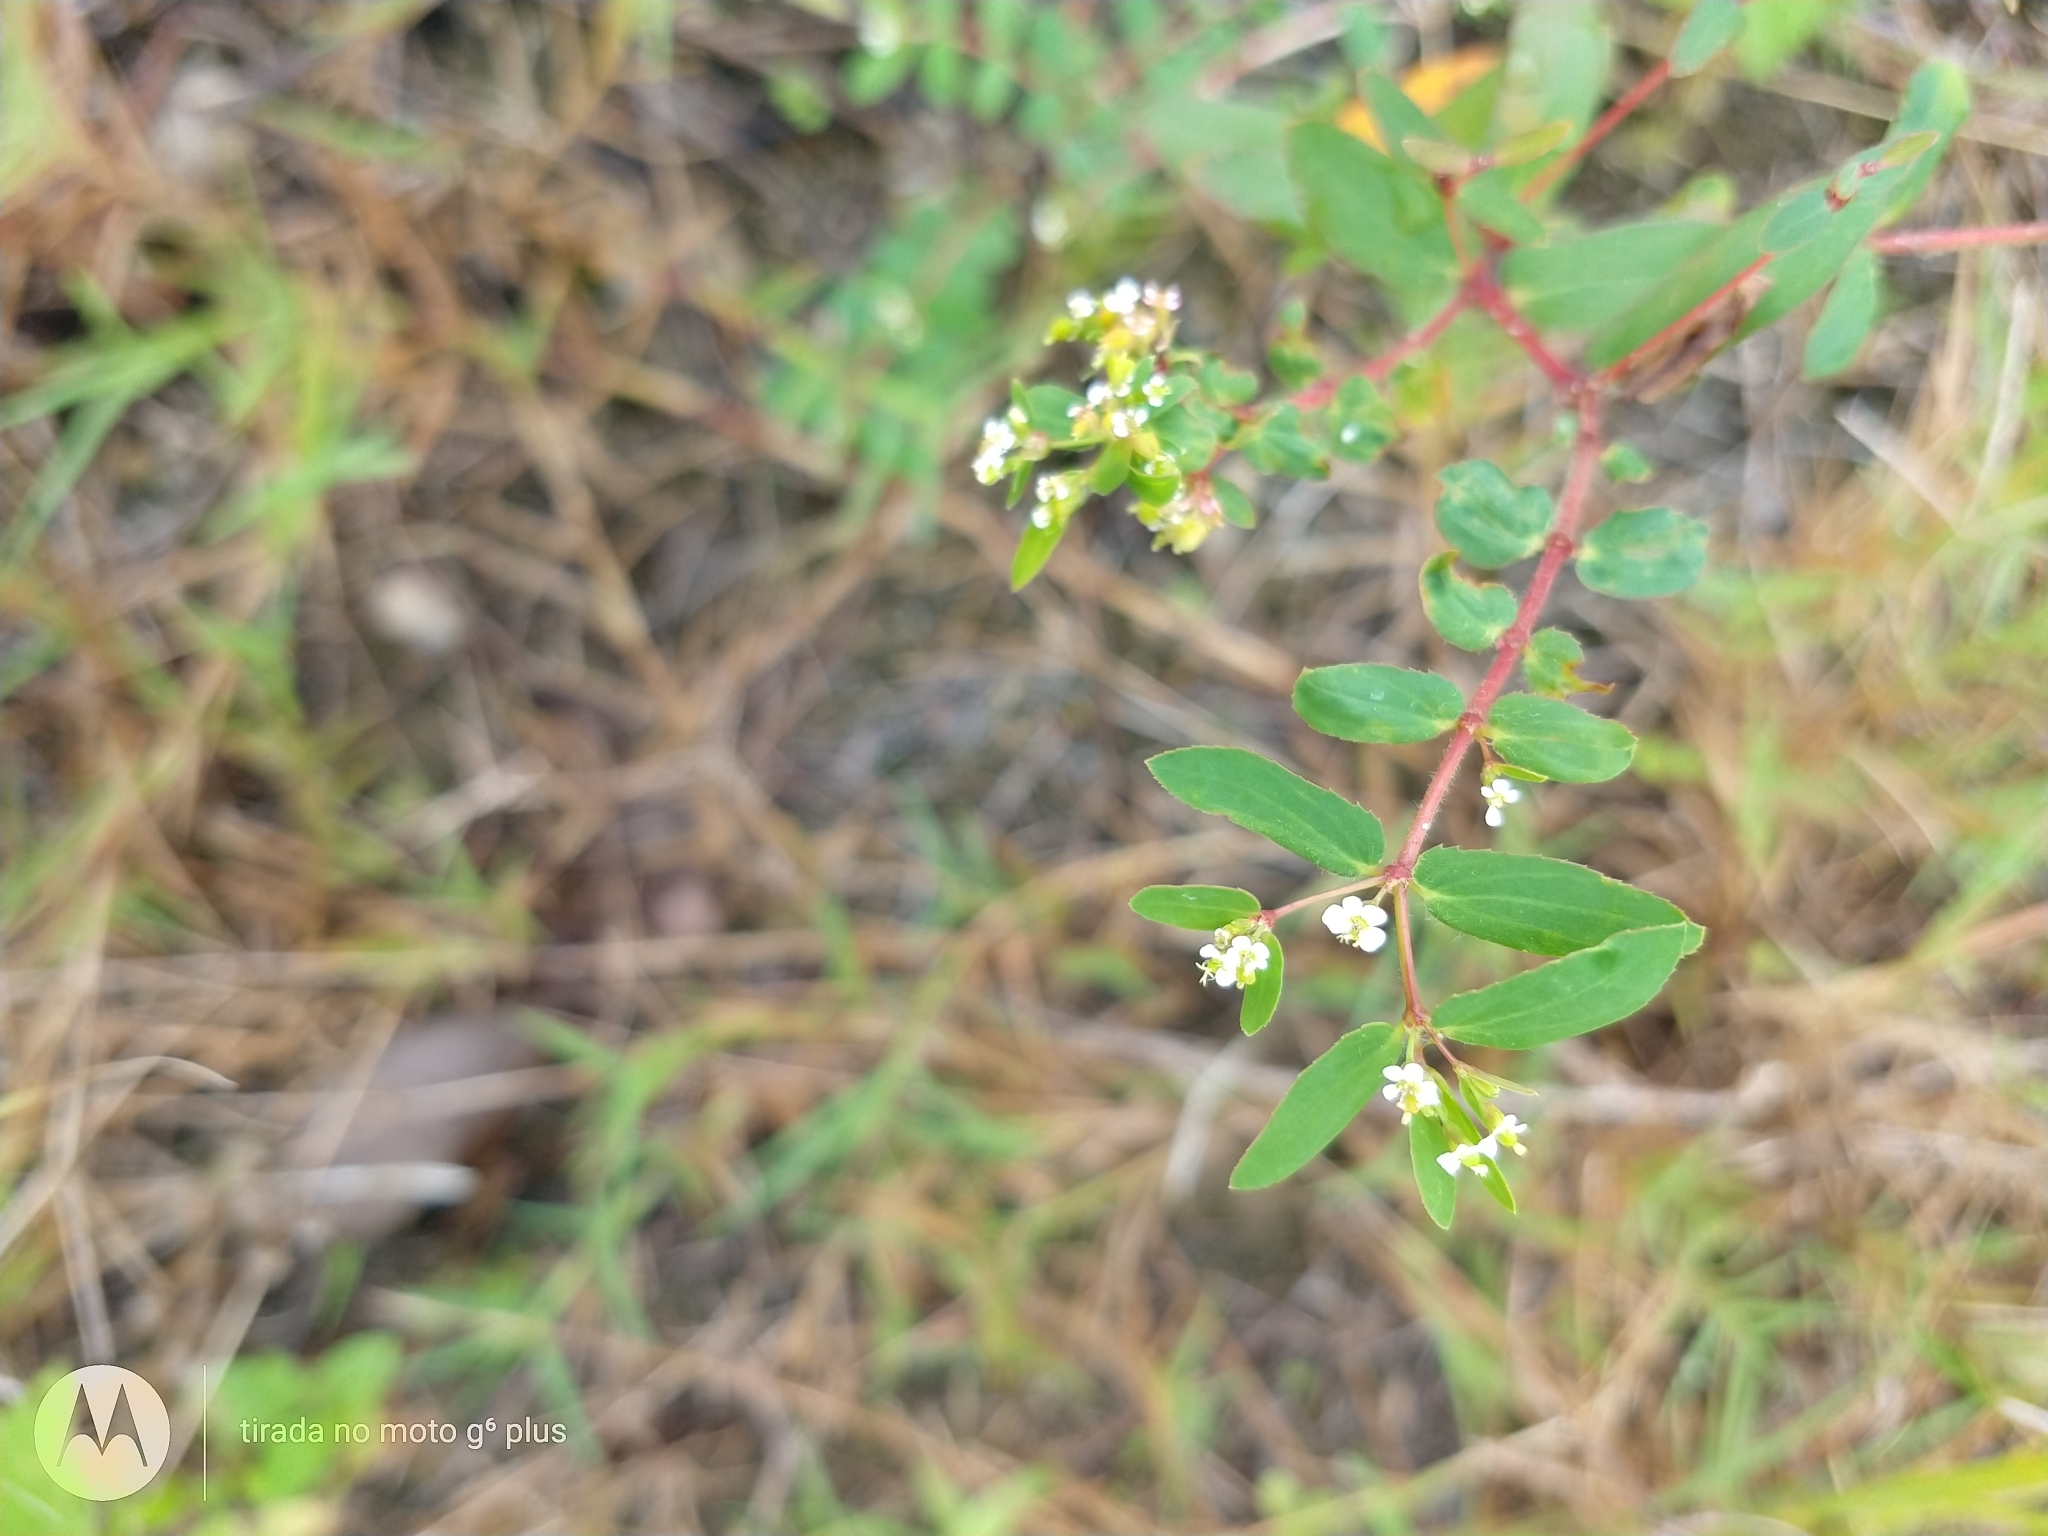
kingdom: Plantae
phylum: Tracheophyta
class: Magnoliopsida
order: Malpighiales
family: Euphorbiaceae
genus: Euphorbia
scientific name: Euphorbia hyssopifolia
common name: Hyssopleaf sandmat
